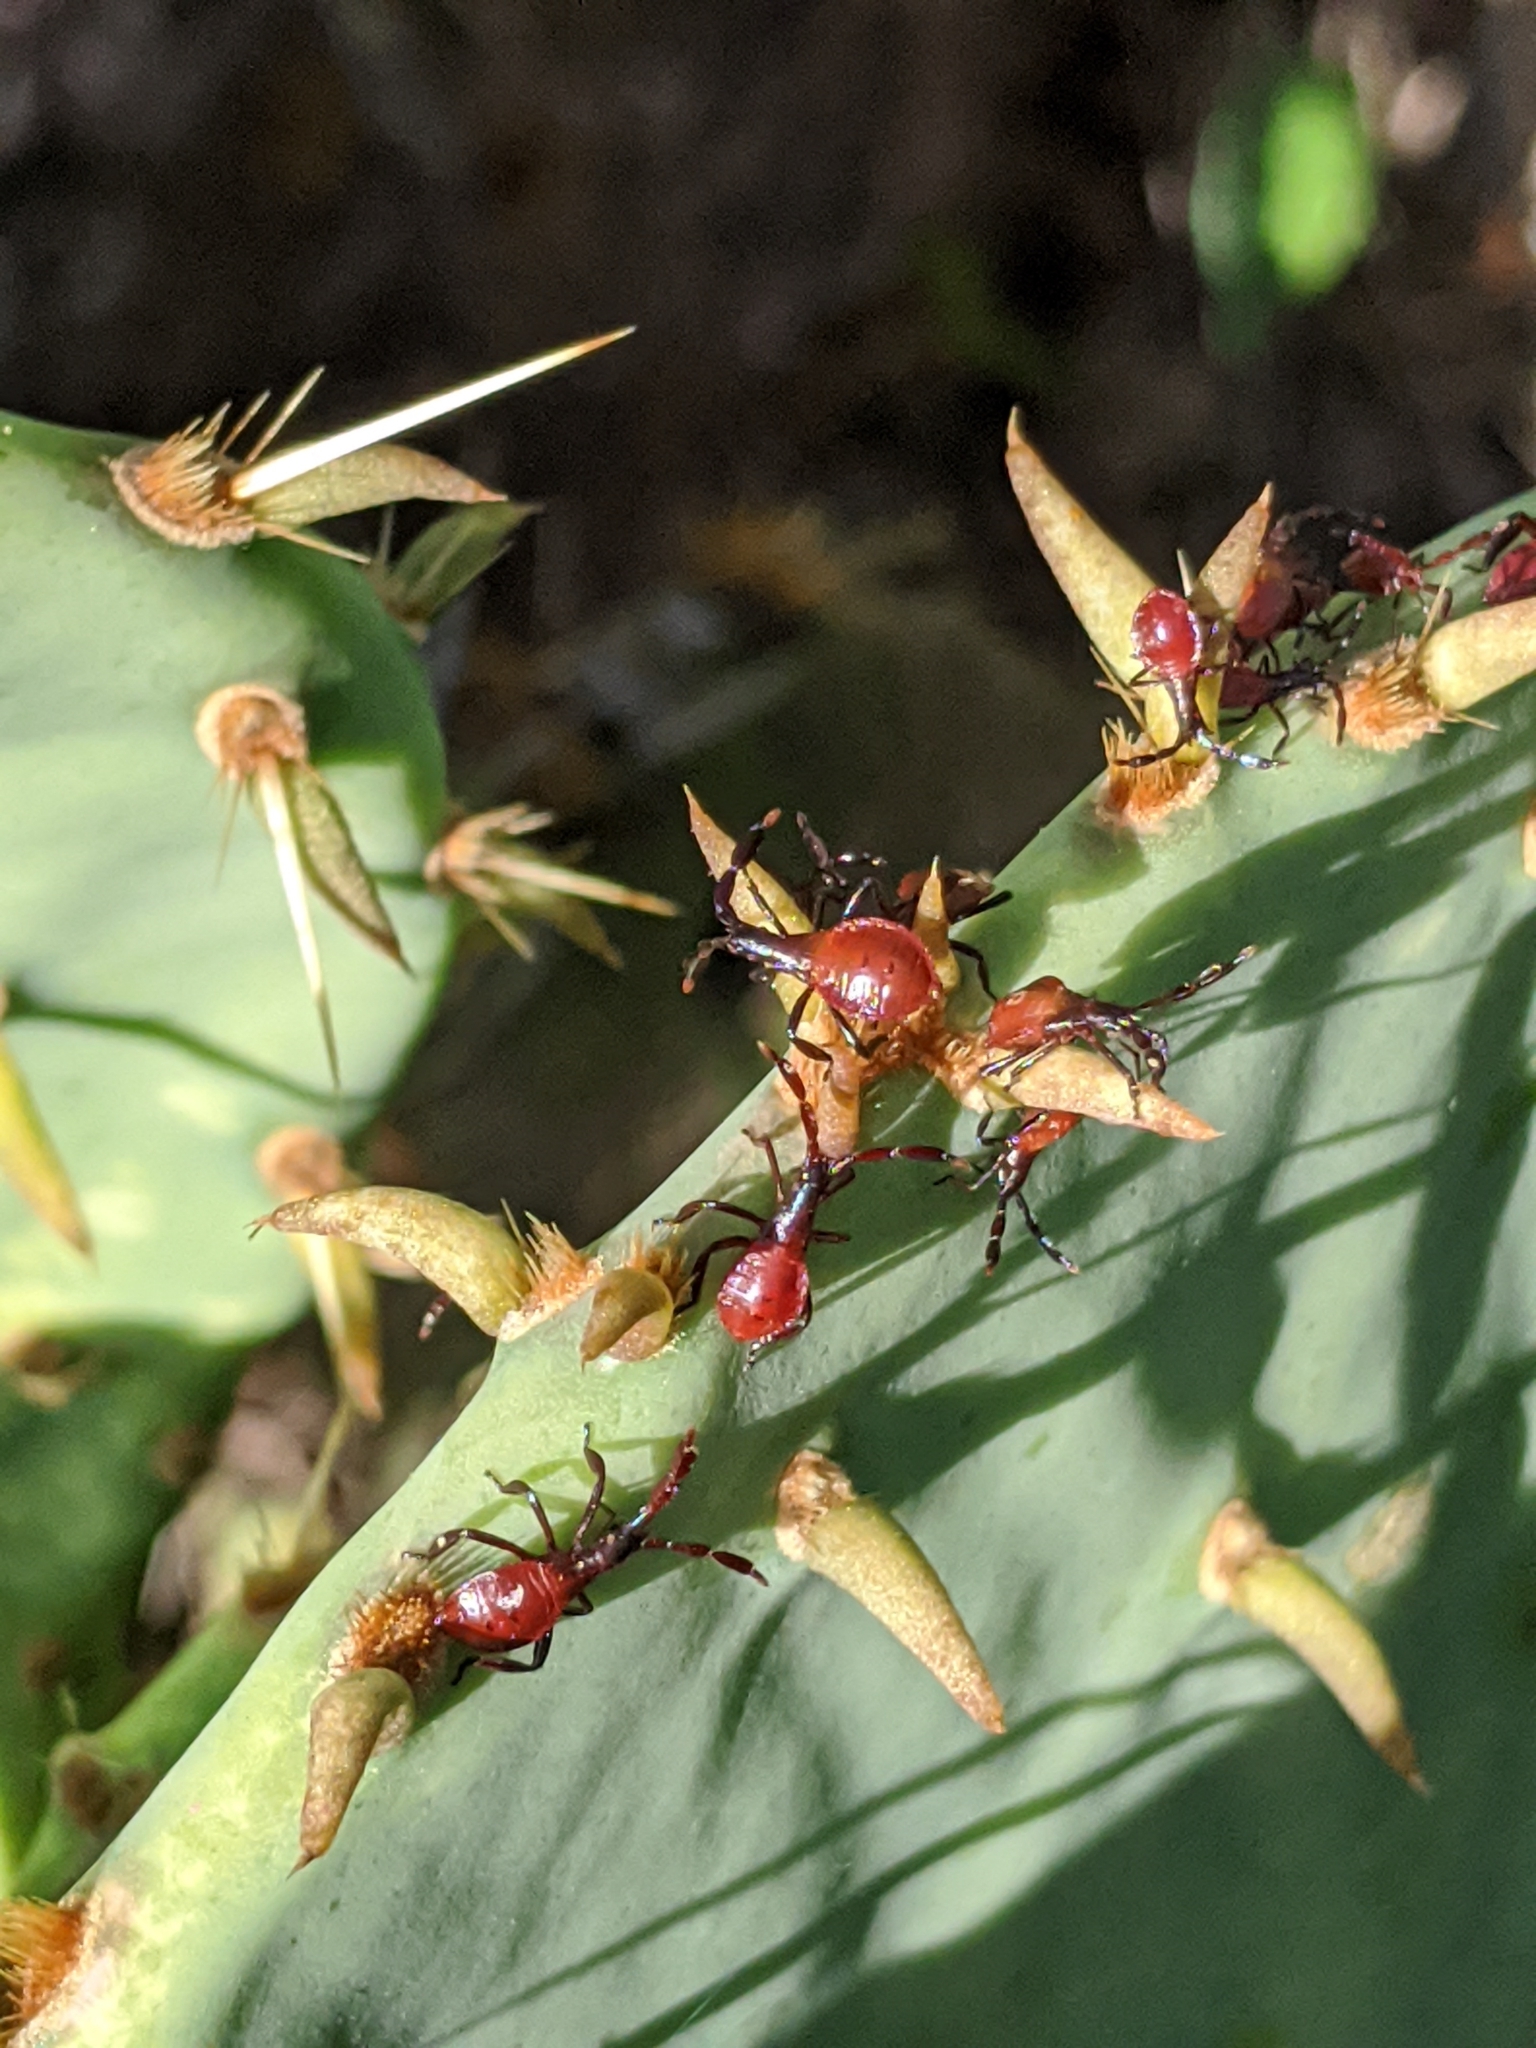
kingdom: Animalia
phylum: Arthropoda
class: Insecta
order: Hemiptera
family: Coreidae
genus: Chelinidea
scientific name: Chelinidea vittiger
